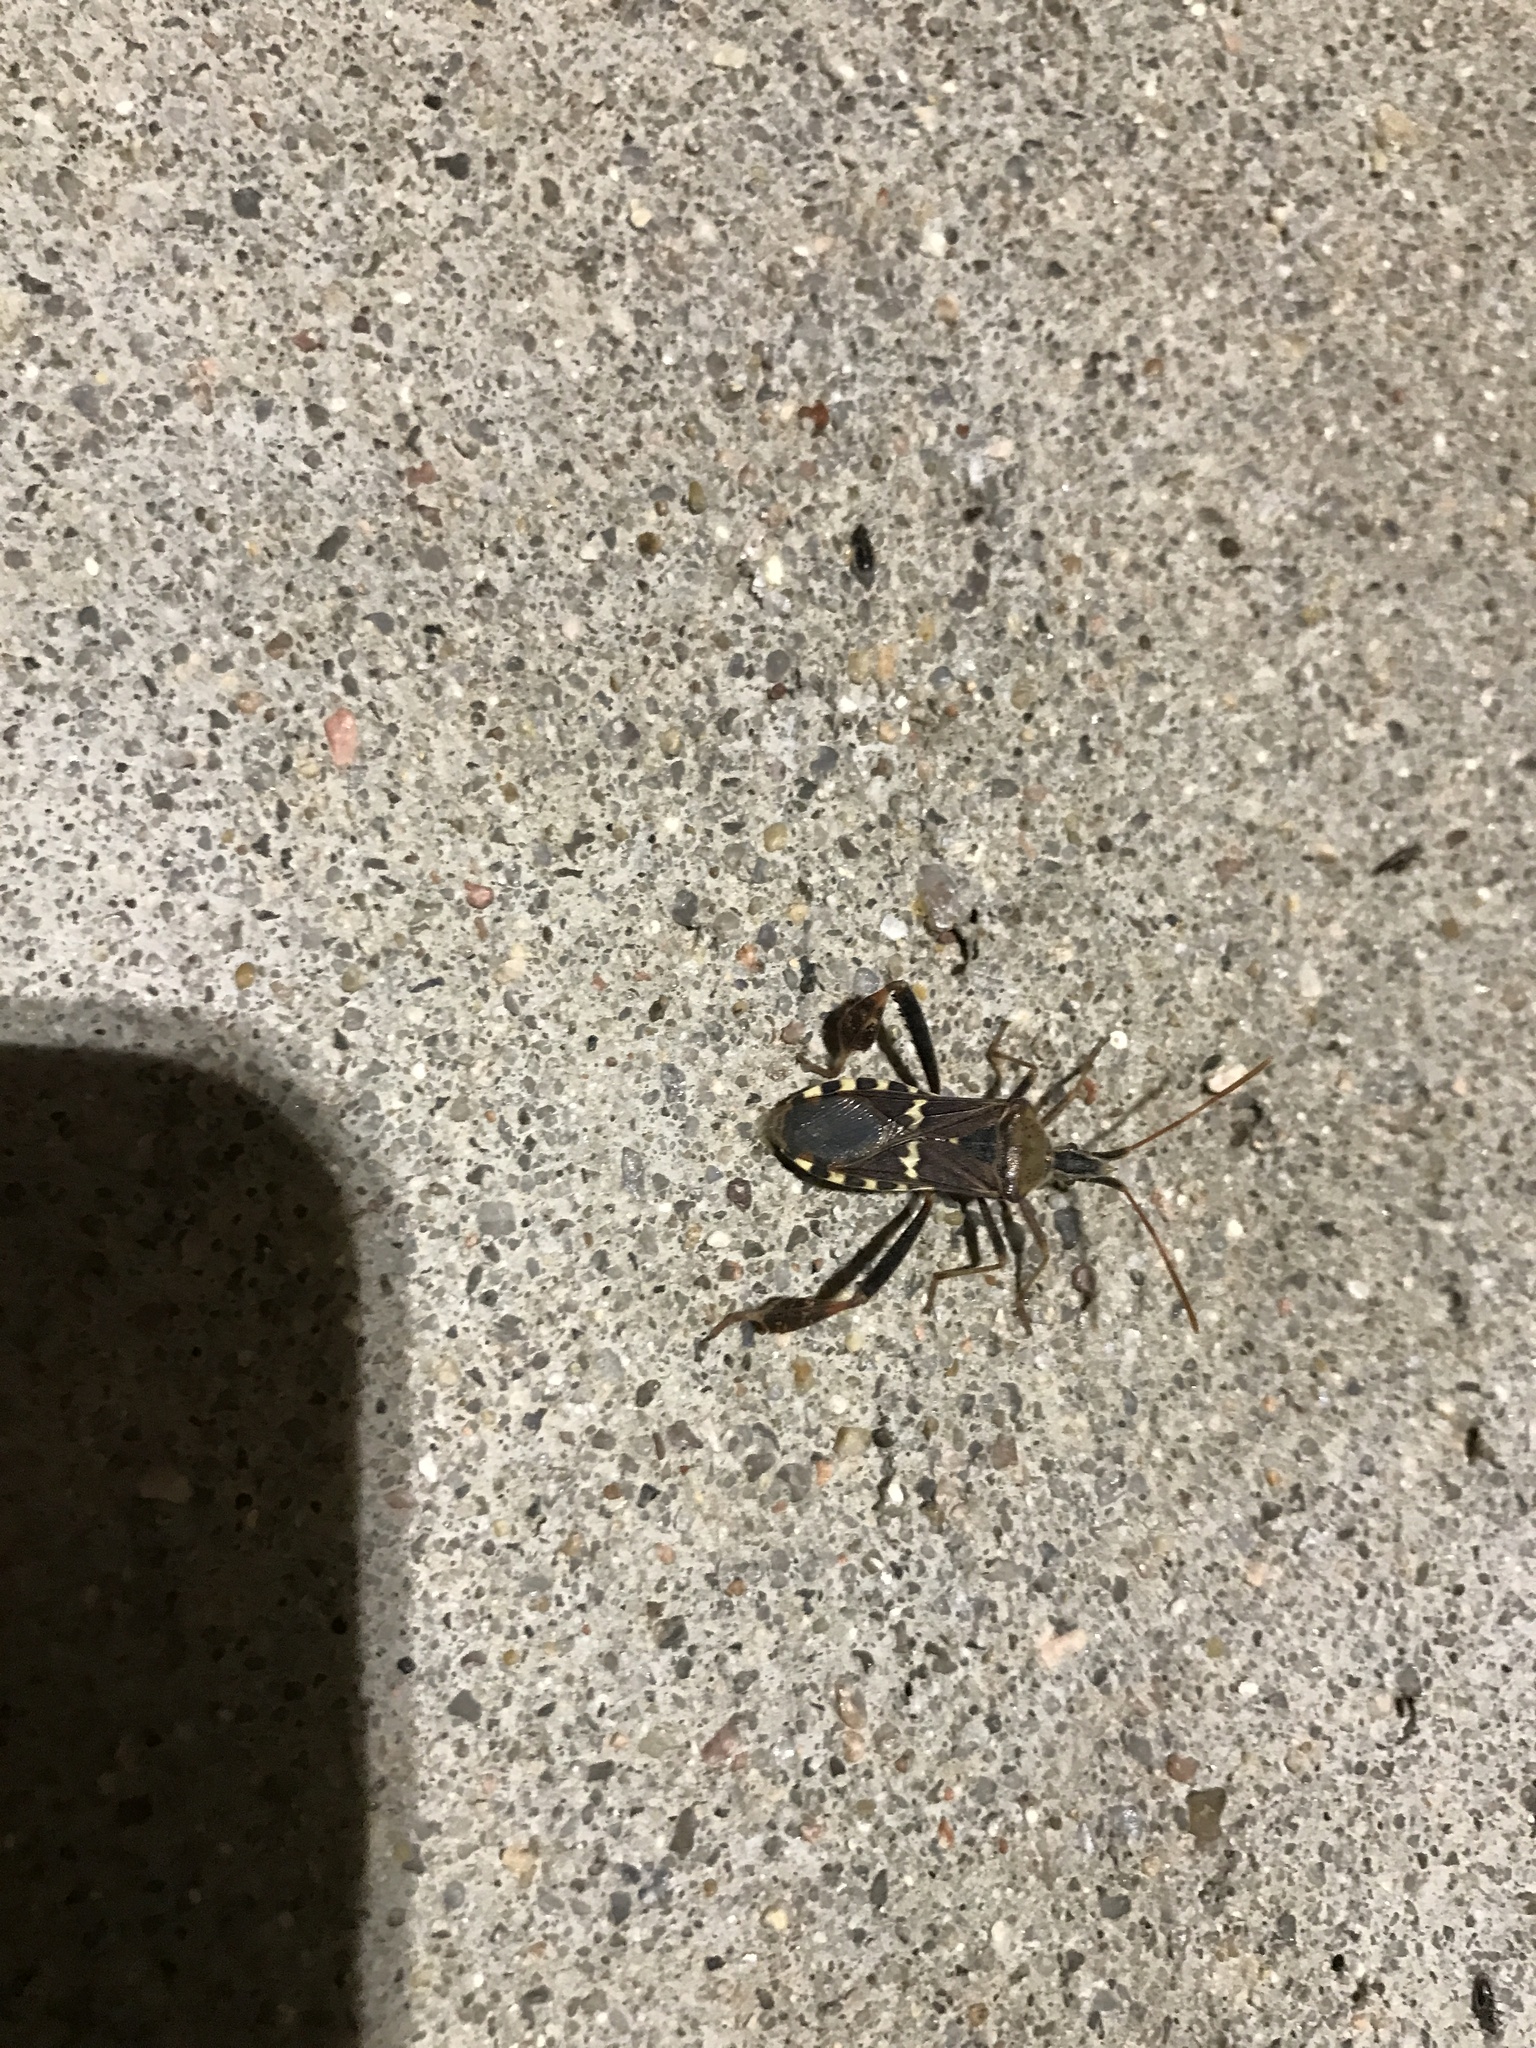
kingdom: Animalia
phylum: Arthropoda
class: Insecta
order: Hemiptera
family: Coreidae
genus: Leptoglossus
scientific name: Leptoglossus clypealis
